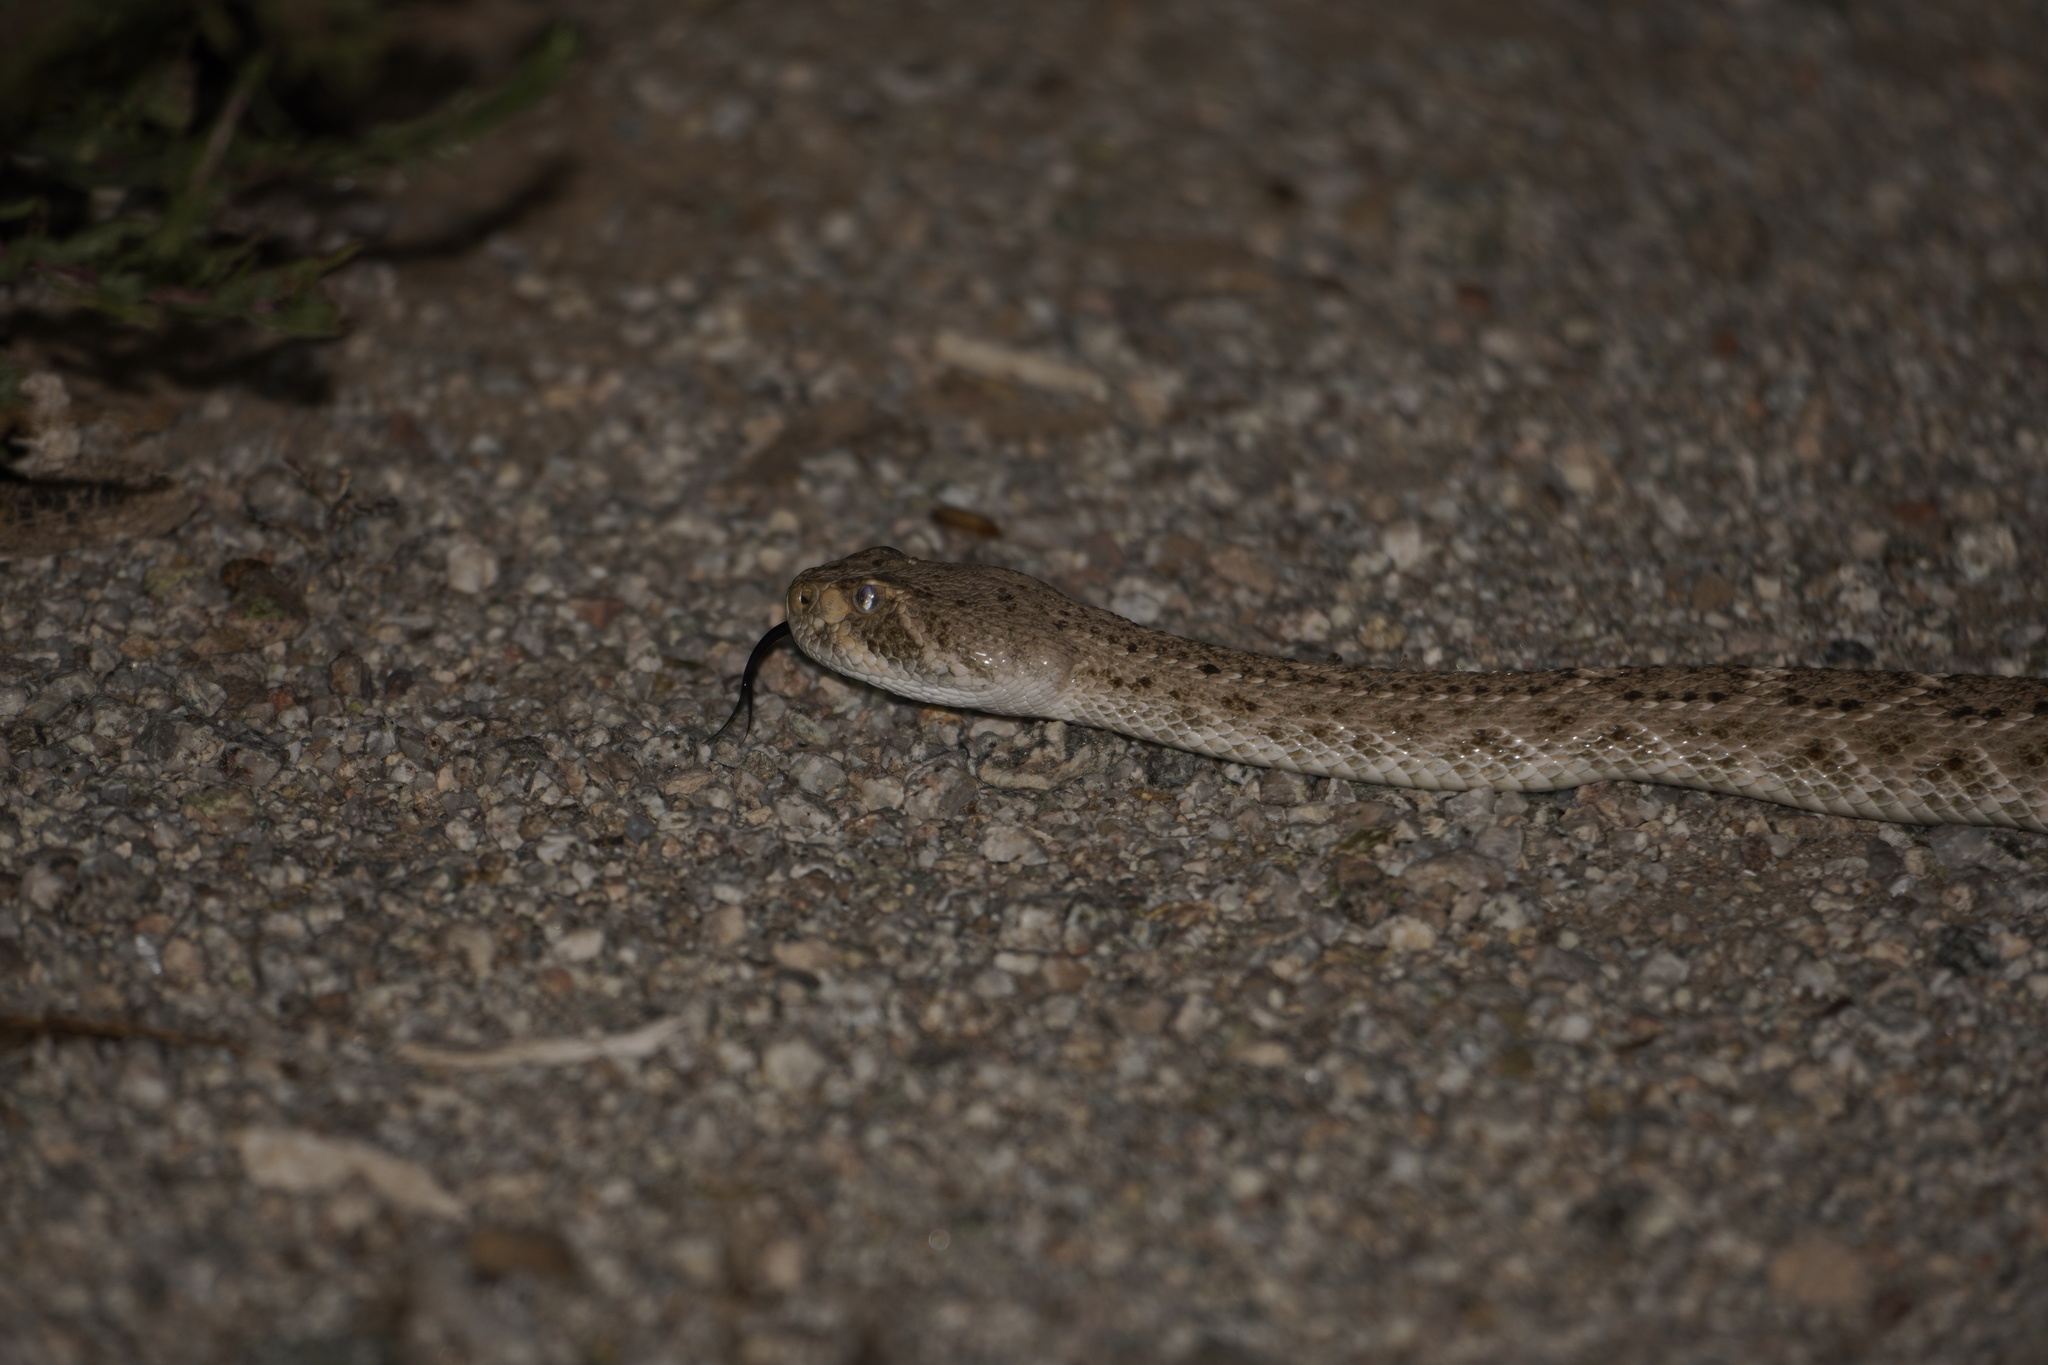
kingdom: Animalia
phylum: Chordata
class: Squamata
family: Viperidae
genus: Crotalus
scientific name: Crotalus atrox
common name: Western diamond-backed rattlesnake
